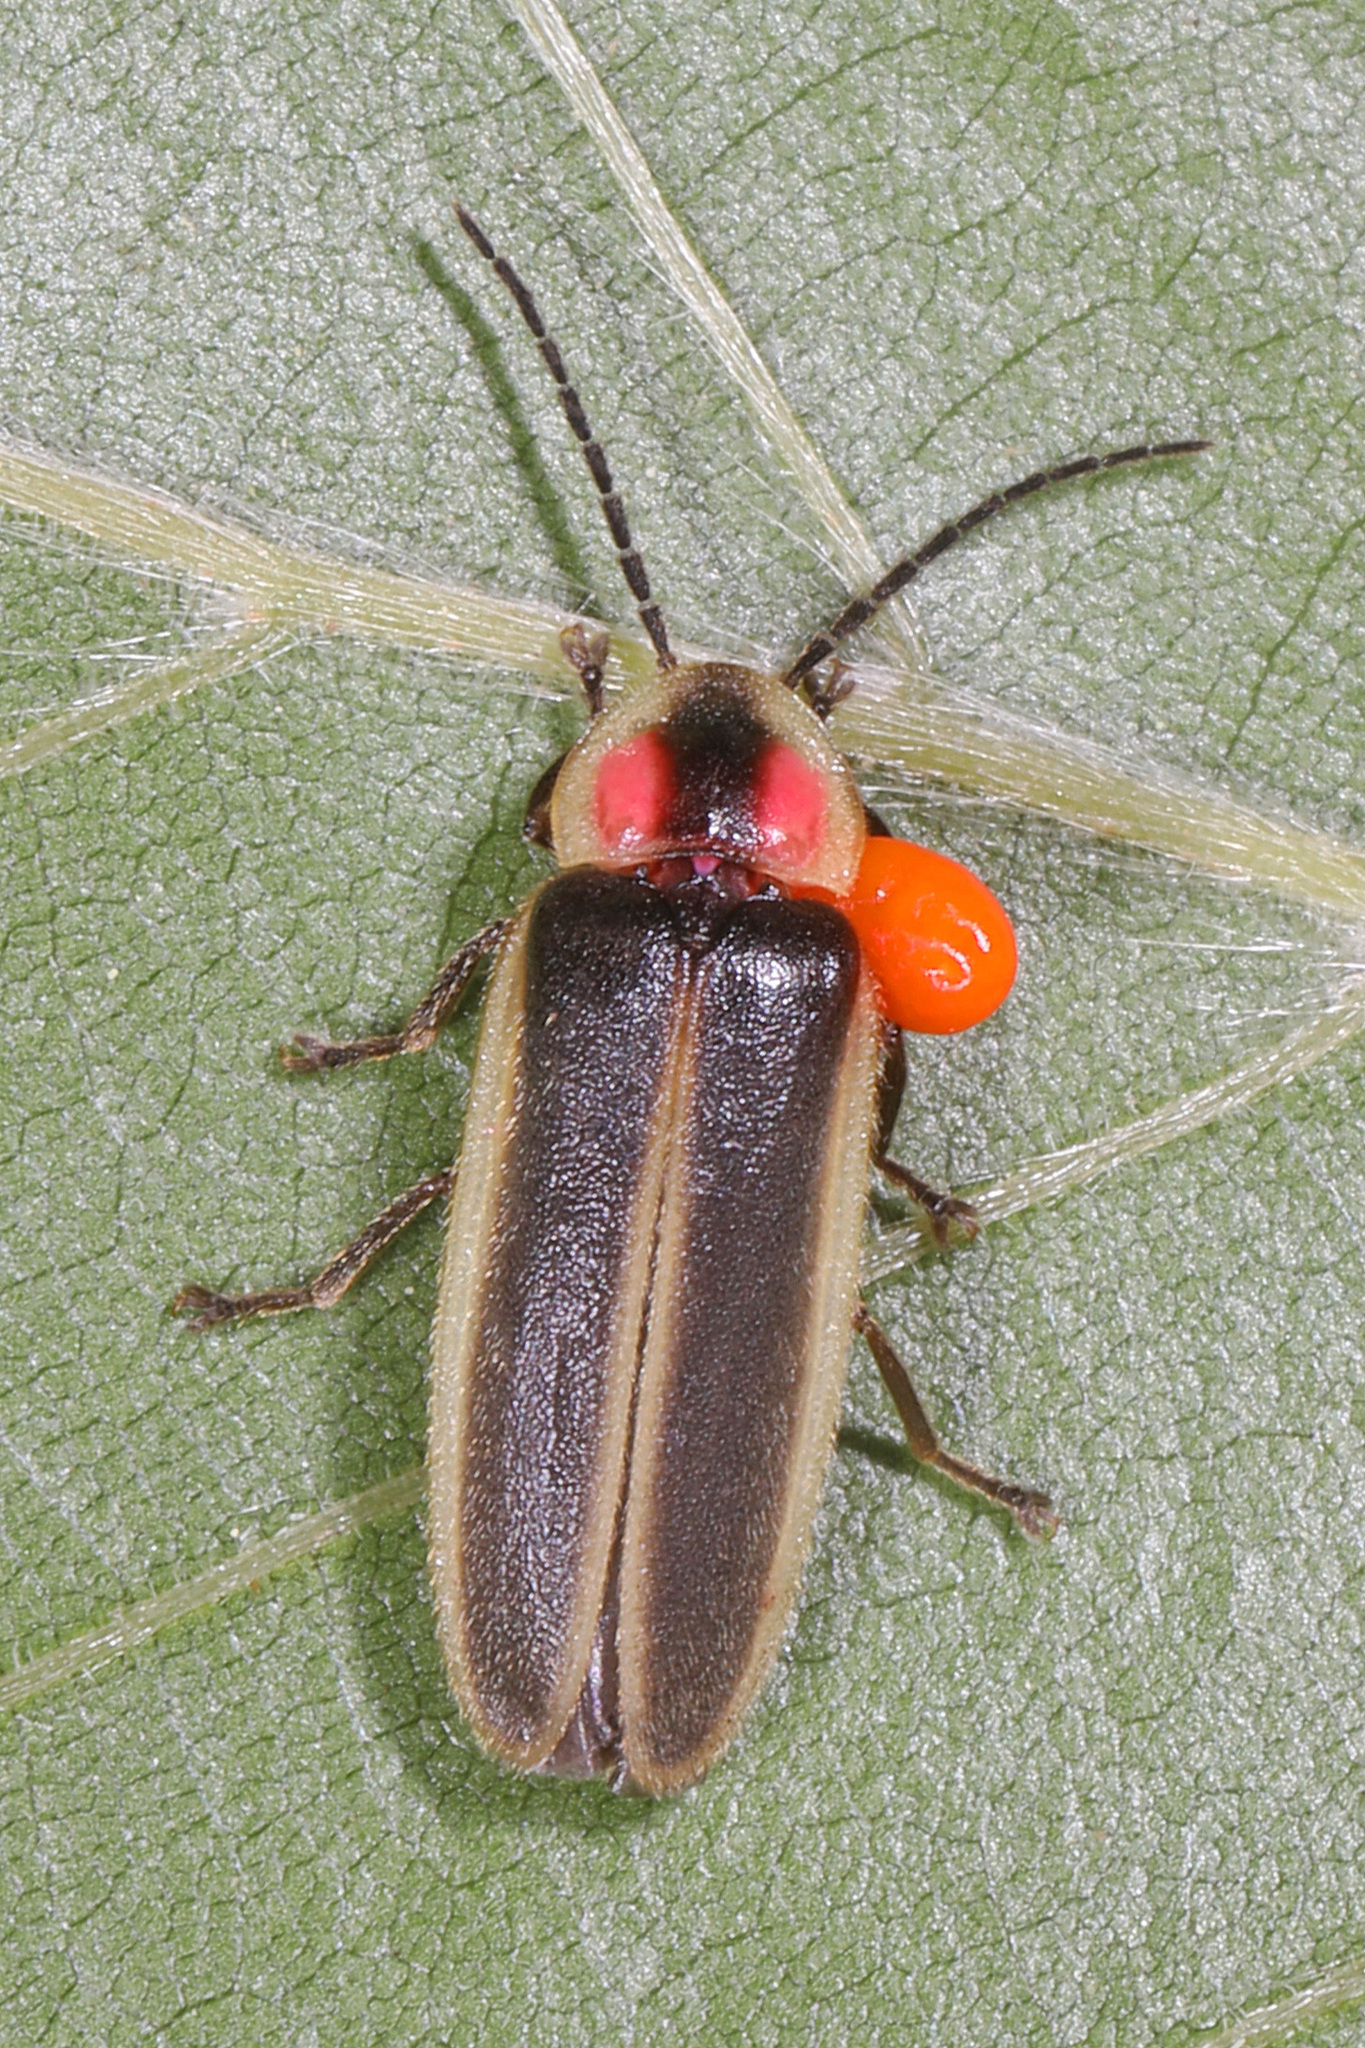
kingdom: Animalia
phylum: Arthropoda
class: Insecta
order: Coleoptera
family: Lampyridae
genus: Photinus
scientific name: Photinus pyralis
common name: Big dipper firefly
